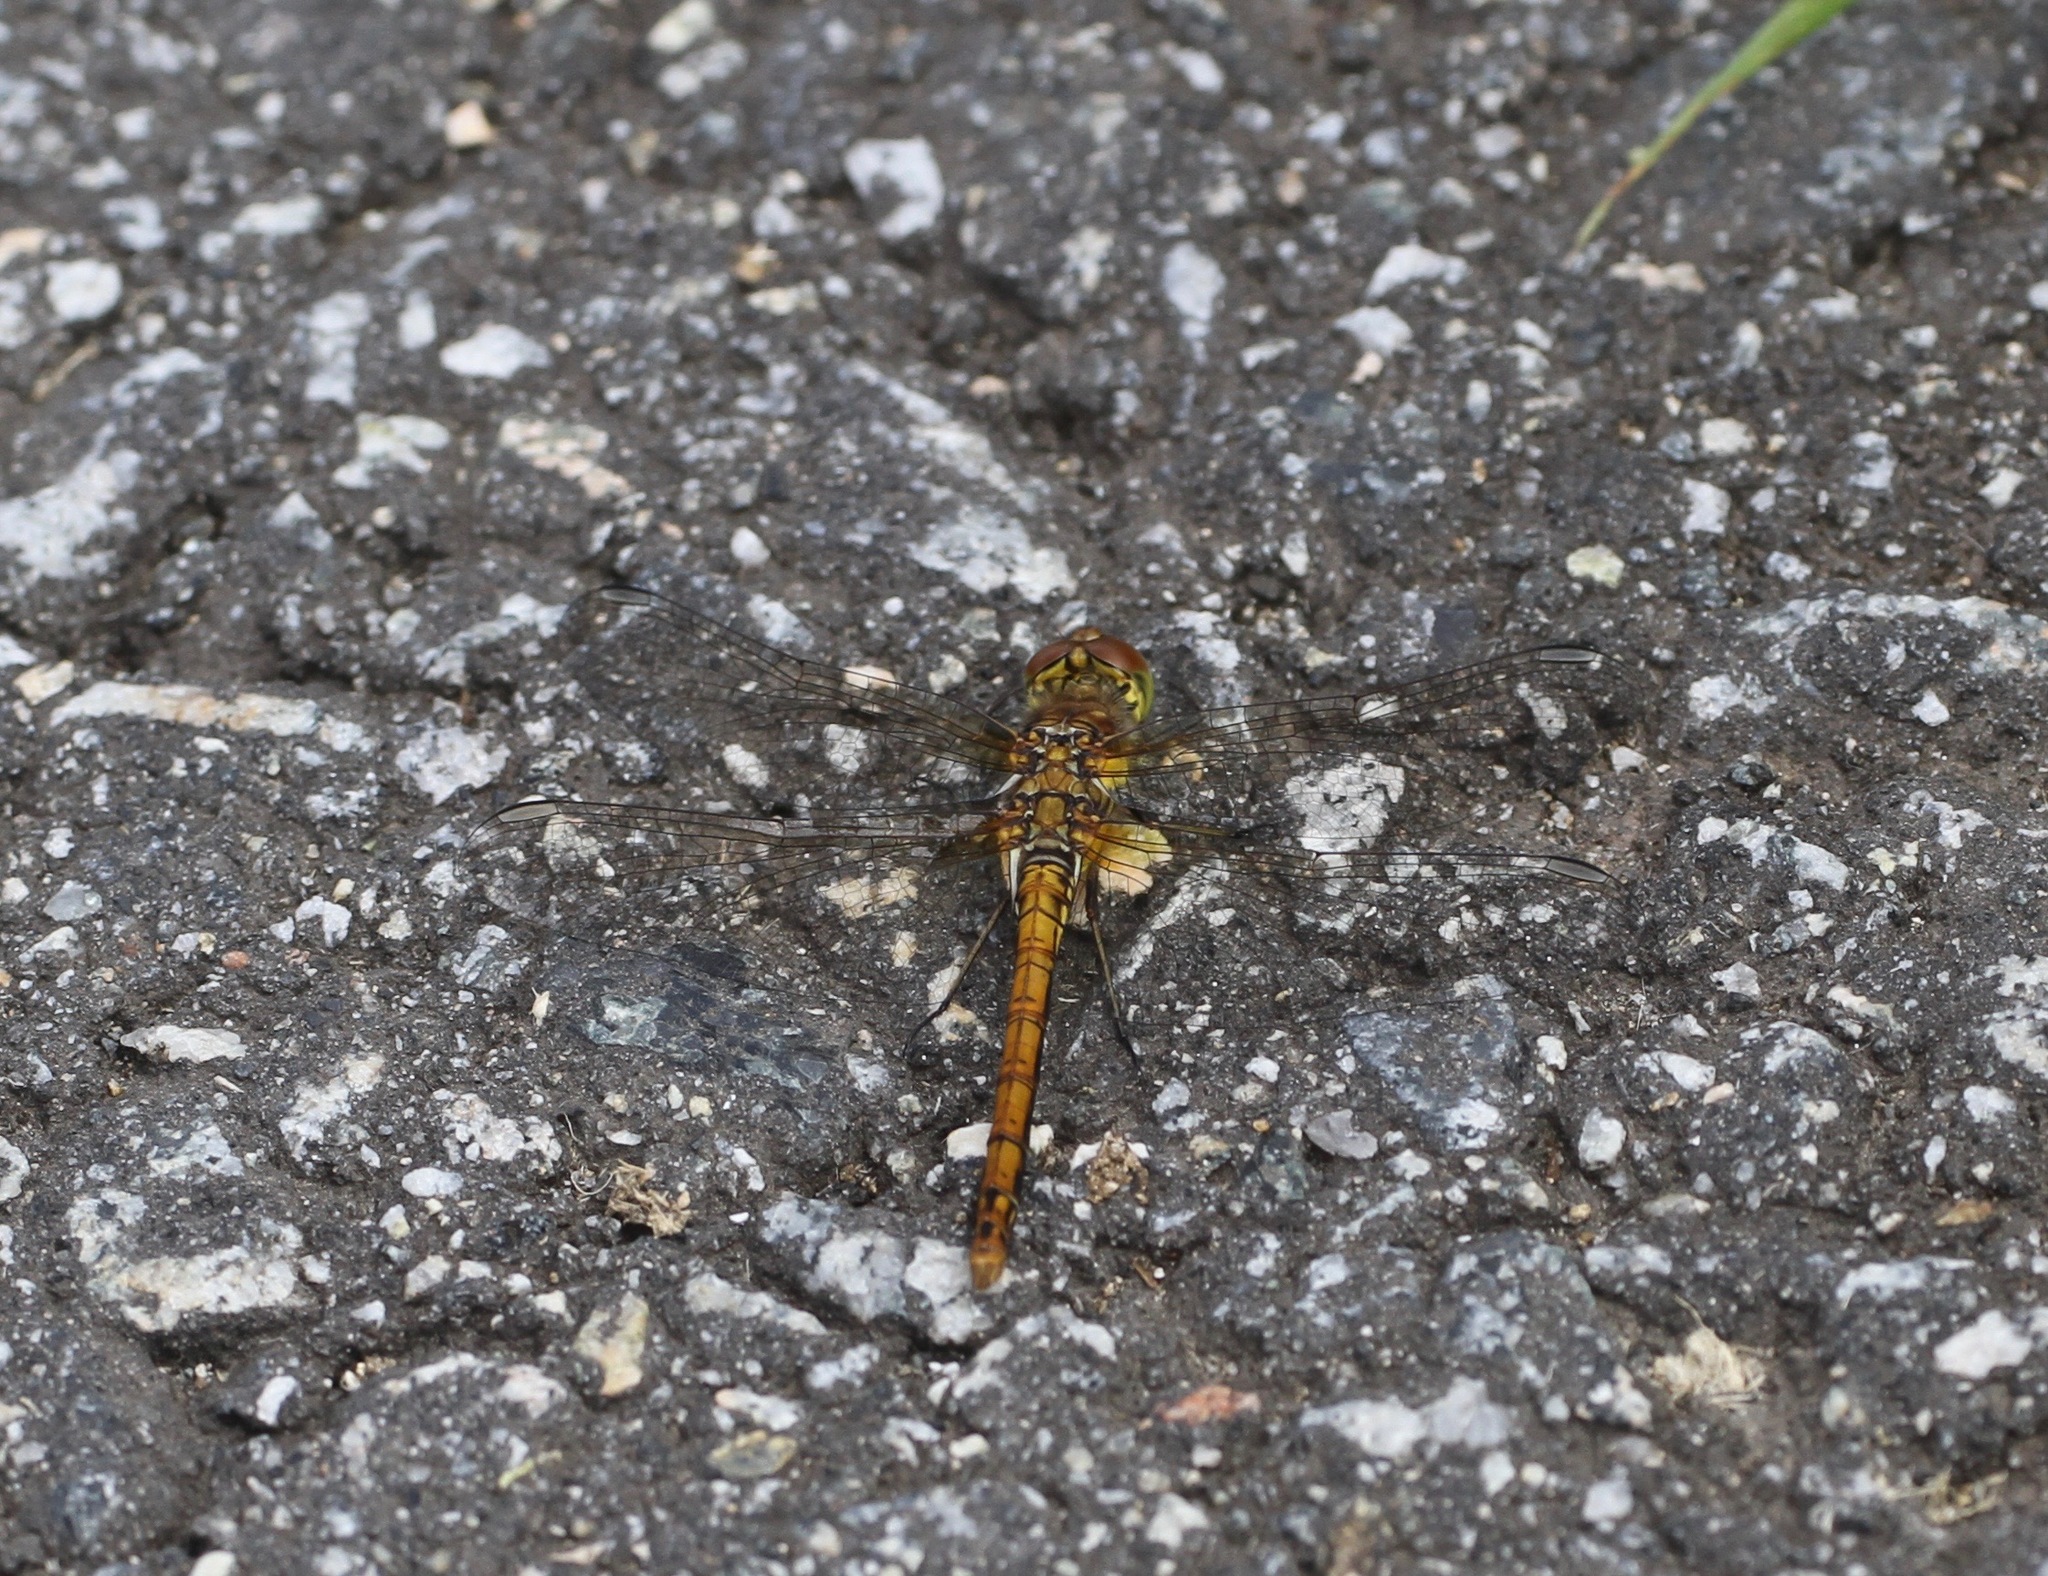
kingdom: Animalia
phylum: Arthropoda
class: Insecta
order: Odonata
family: Libellulidae
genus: Sympetrum
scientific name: Sympetrum striolatum
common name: Common darter
